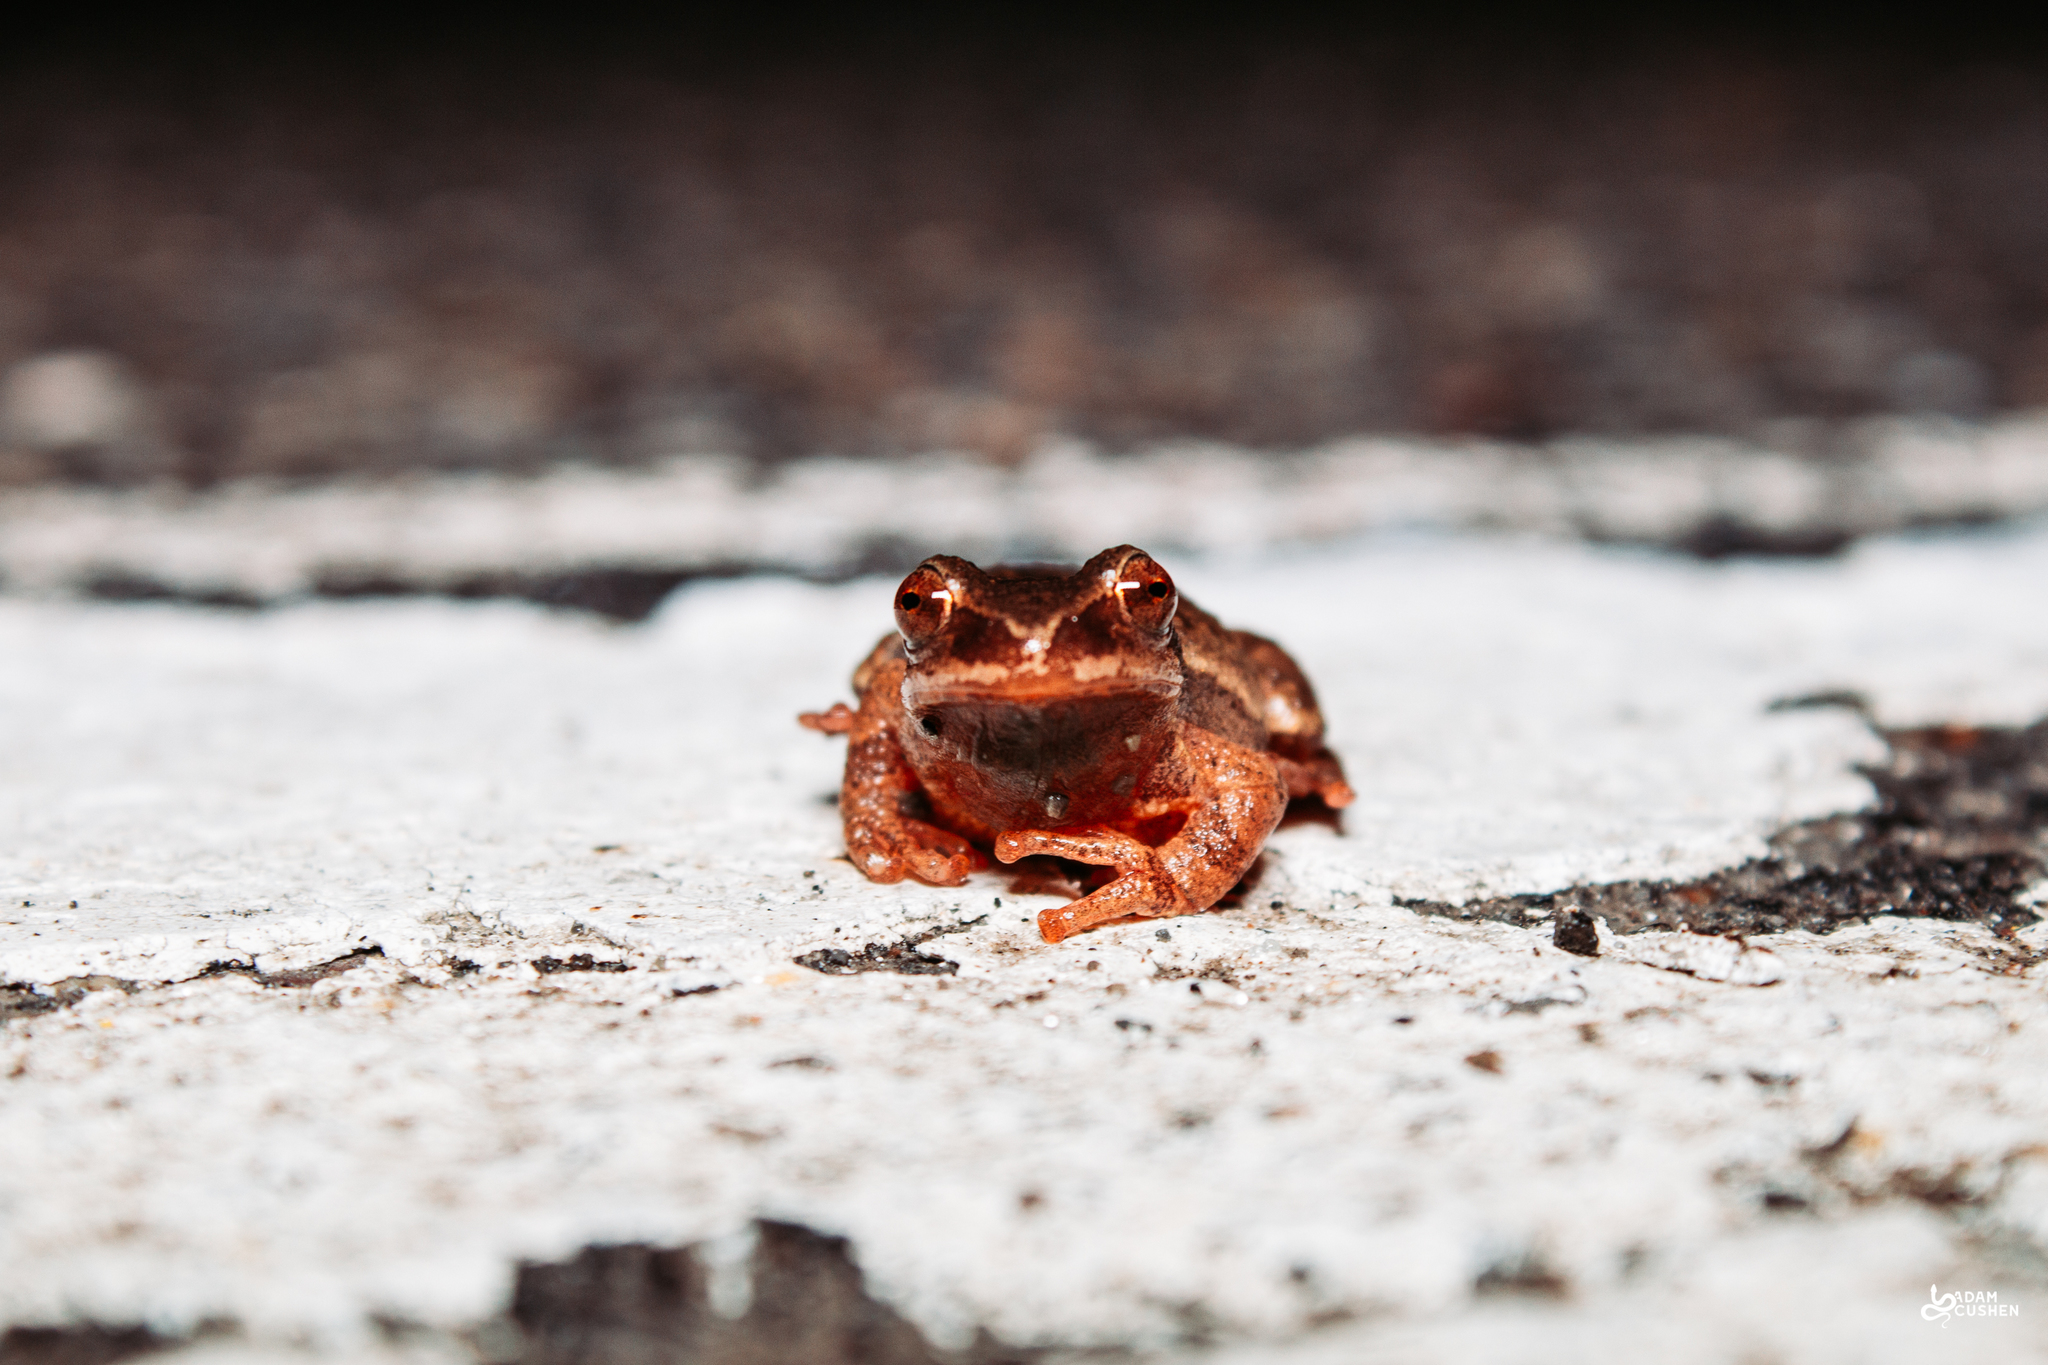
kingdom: Animalia
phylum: Chordata
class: Amphibia
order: Anura
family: Hylidae
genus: Pseudacris
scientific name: Pseudacris crucifer
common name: Spring peeper
